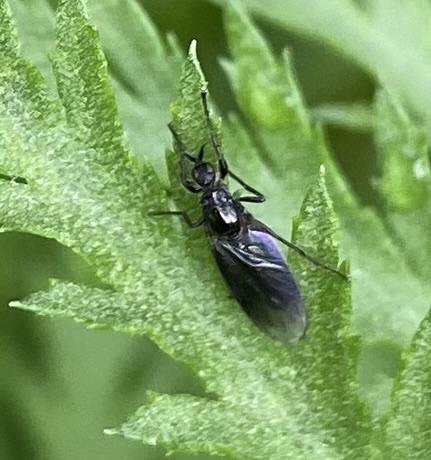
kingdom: Animalia
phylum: Arthropoda
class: Insecta
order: Diptera
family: Bibionidae
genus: Dilophus
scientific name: Dilophus febrilis
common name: Fever fly
